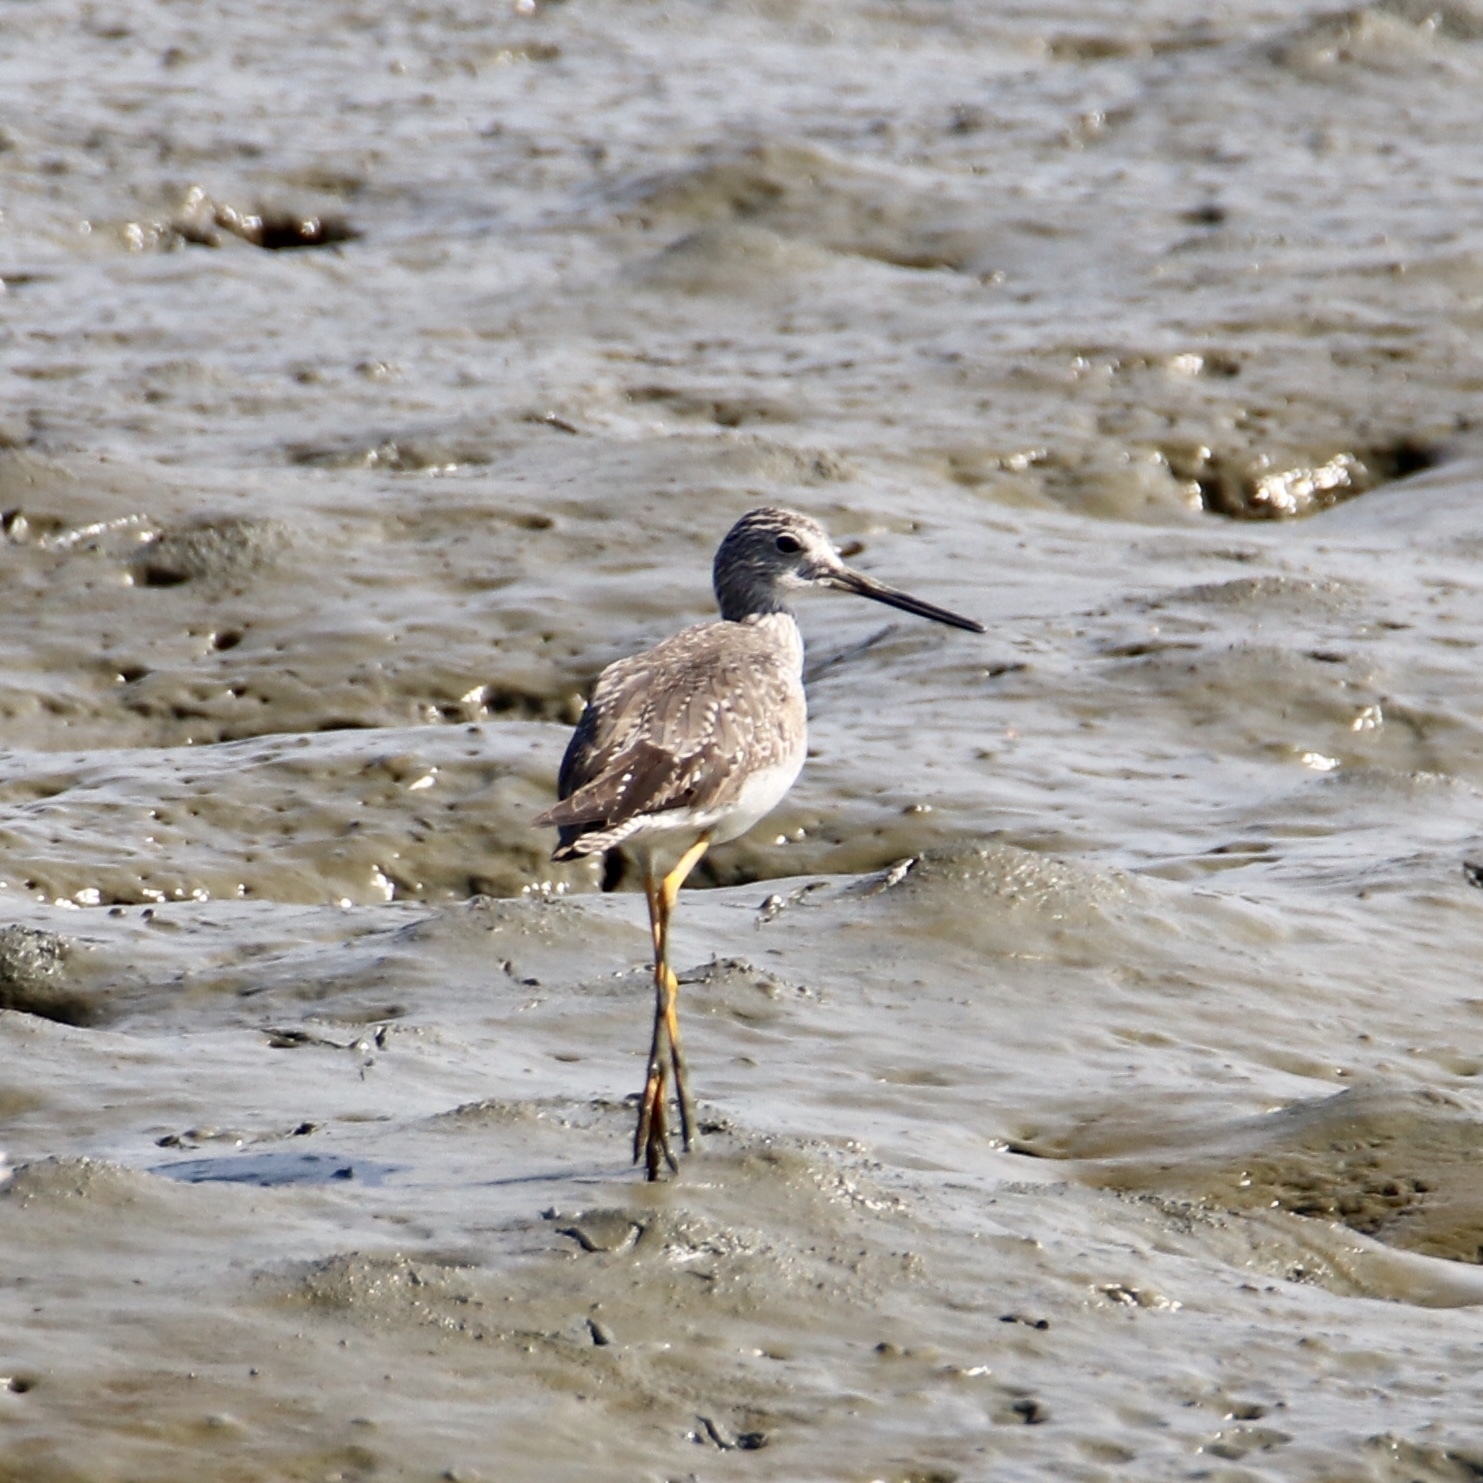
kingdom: Animalia
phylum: Chordata
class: Aves
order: Charadriiformes
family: Scolopacidae
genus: Tringa
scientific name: Tringa melanoleuca
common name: Greater yellowlegs
